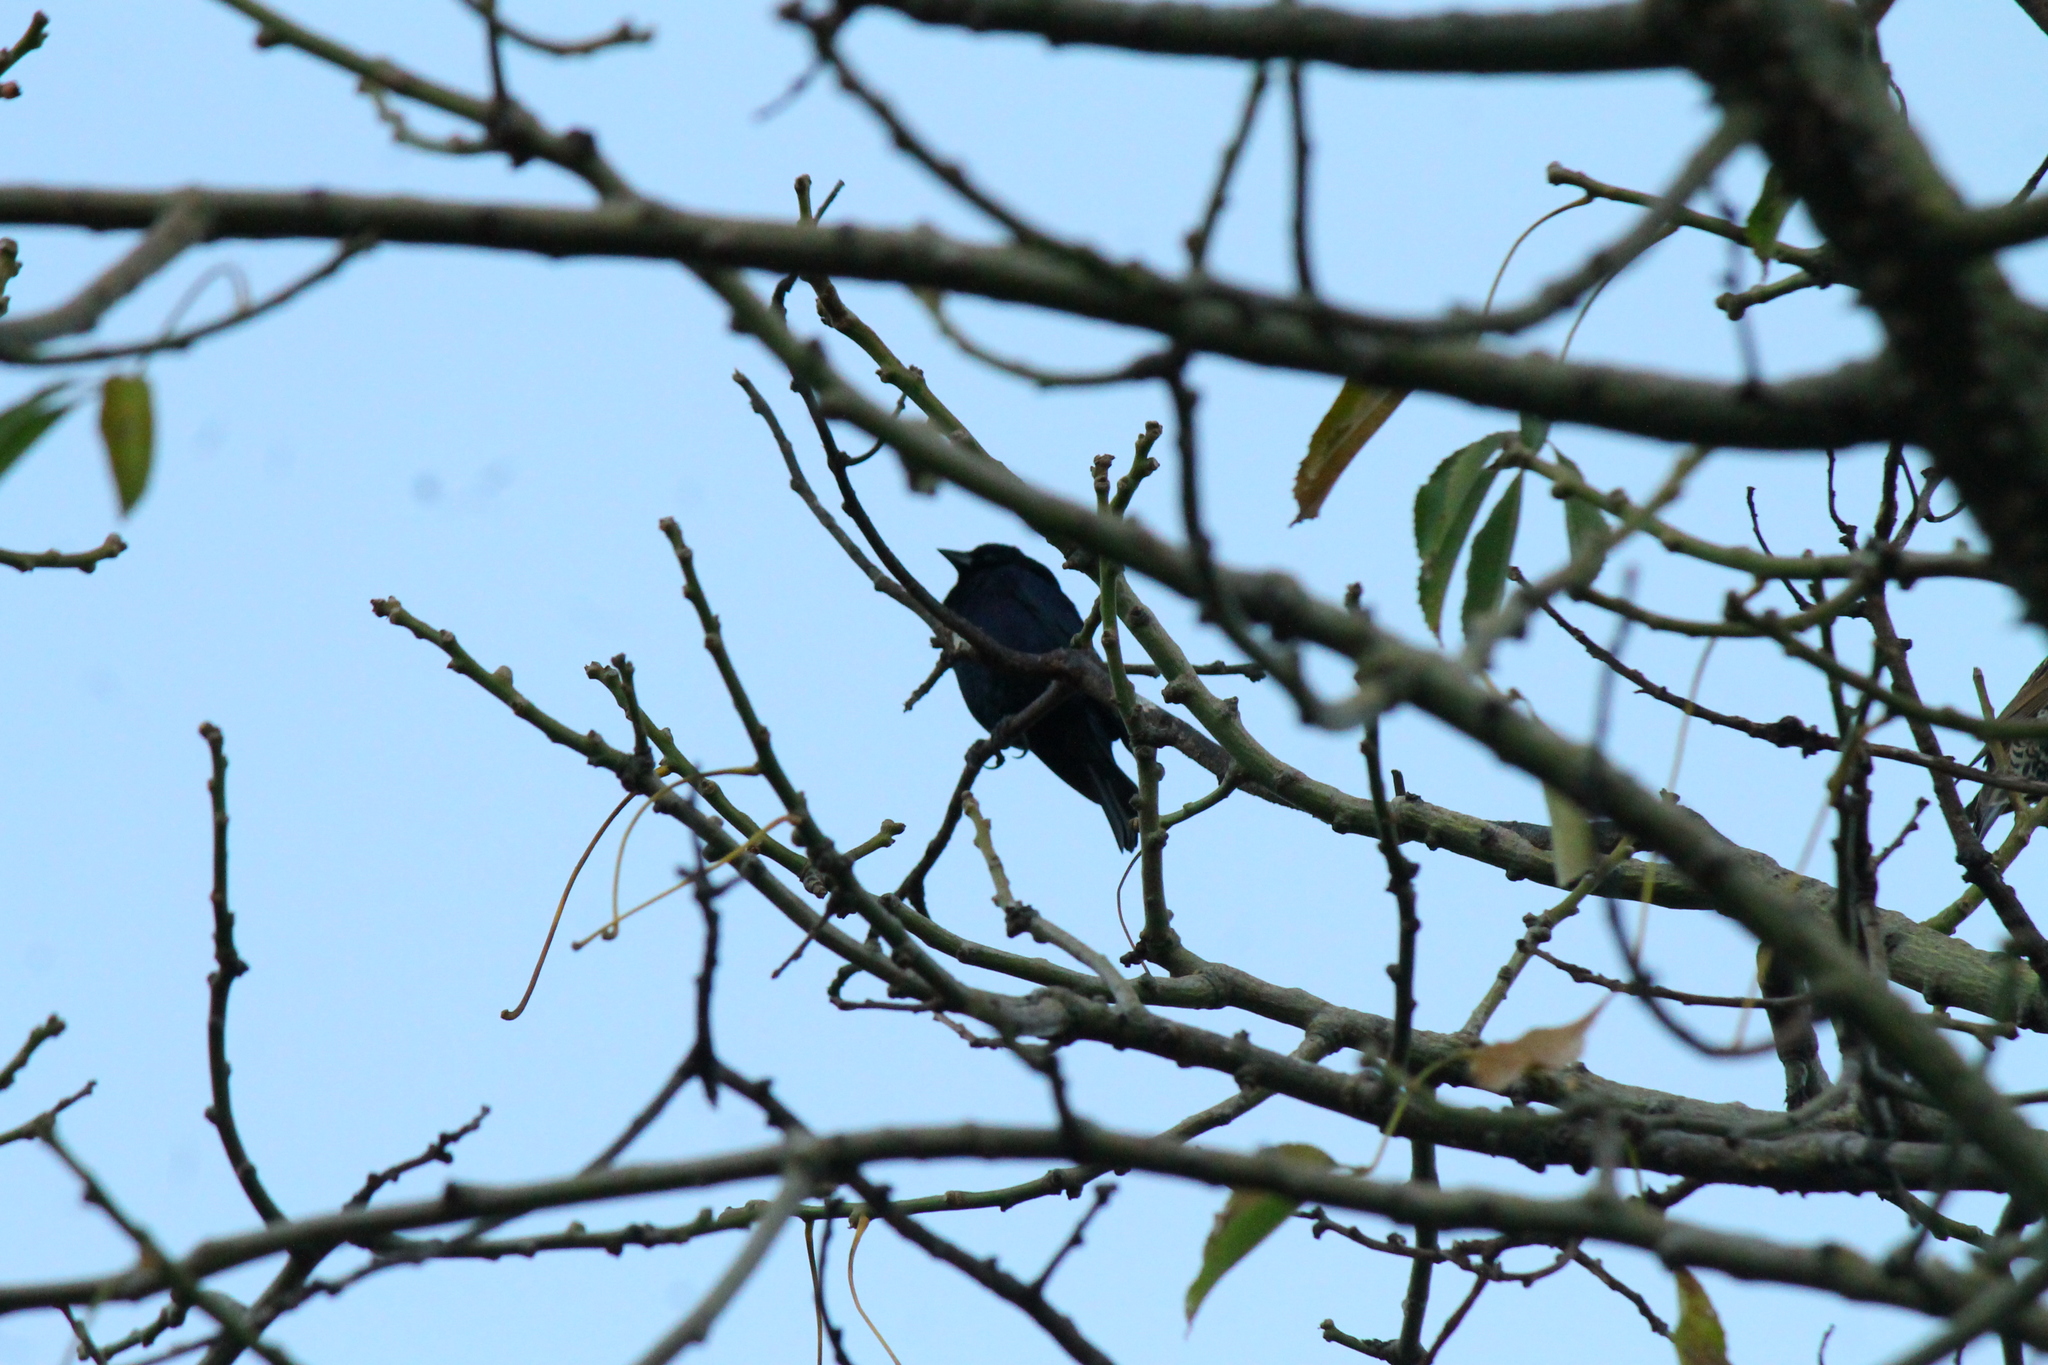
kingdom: Animalia
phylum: Chordata
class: Aves
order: Passeriformes
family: Icteridae
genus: Molothrus
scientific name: Molothrus bonariensis
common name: Shiny cowbird
